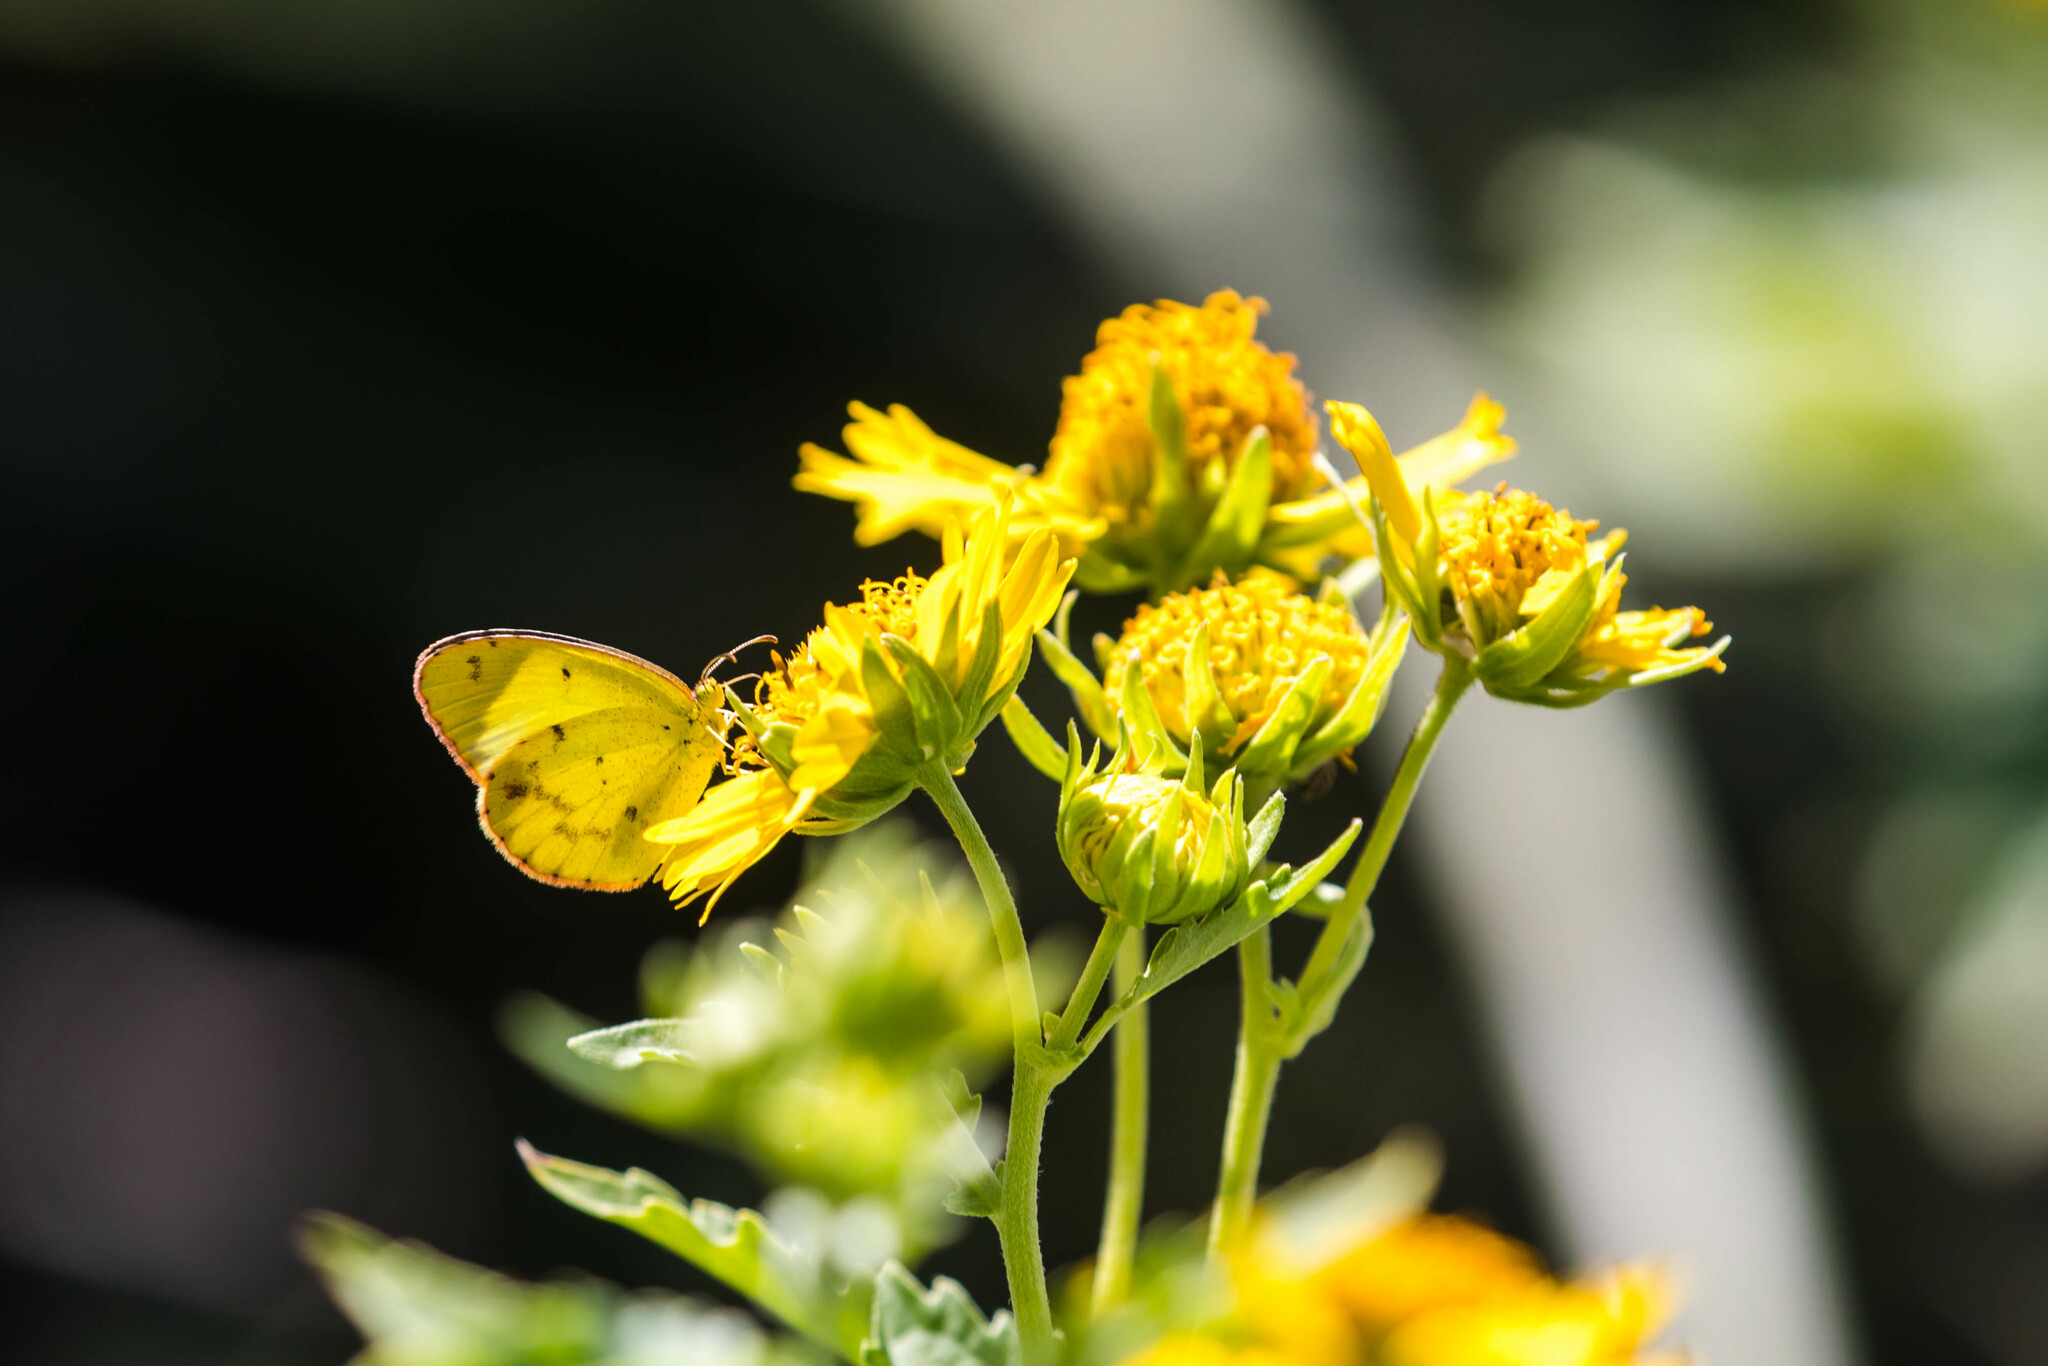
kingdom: Animalia
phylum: Arthropoda
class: Insecta
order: Lepidoptera
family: Pieridae
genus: Pyrisitia
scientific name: Pyrisitia lisa
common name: Little yellow
